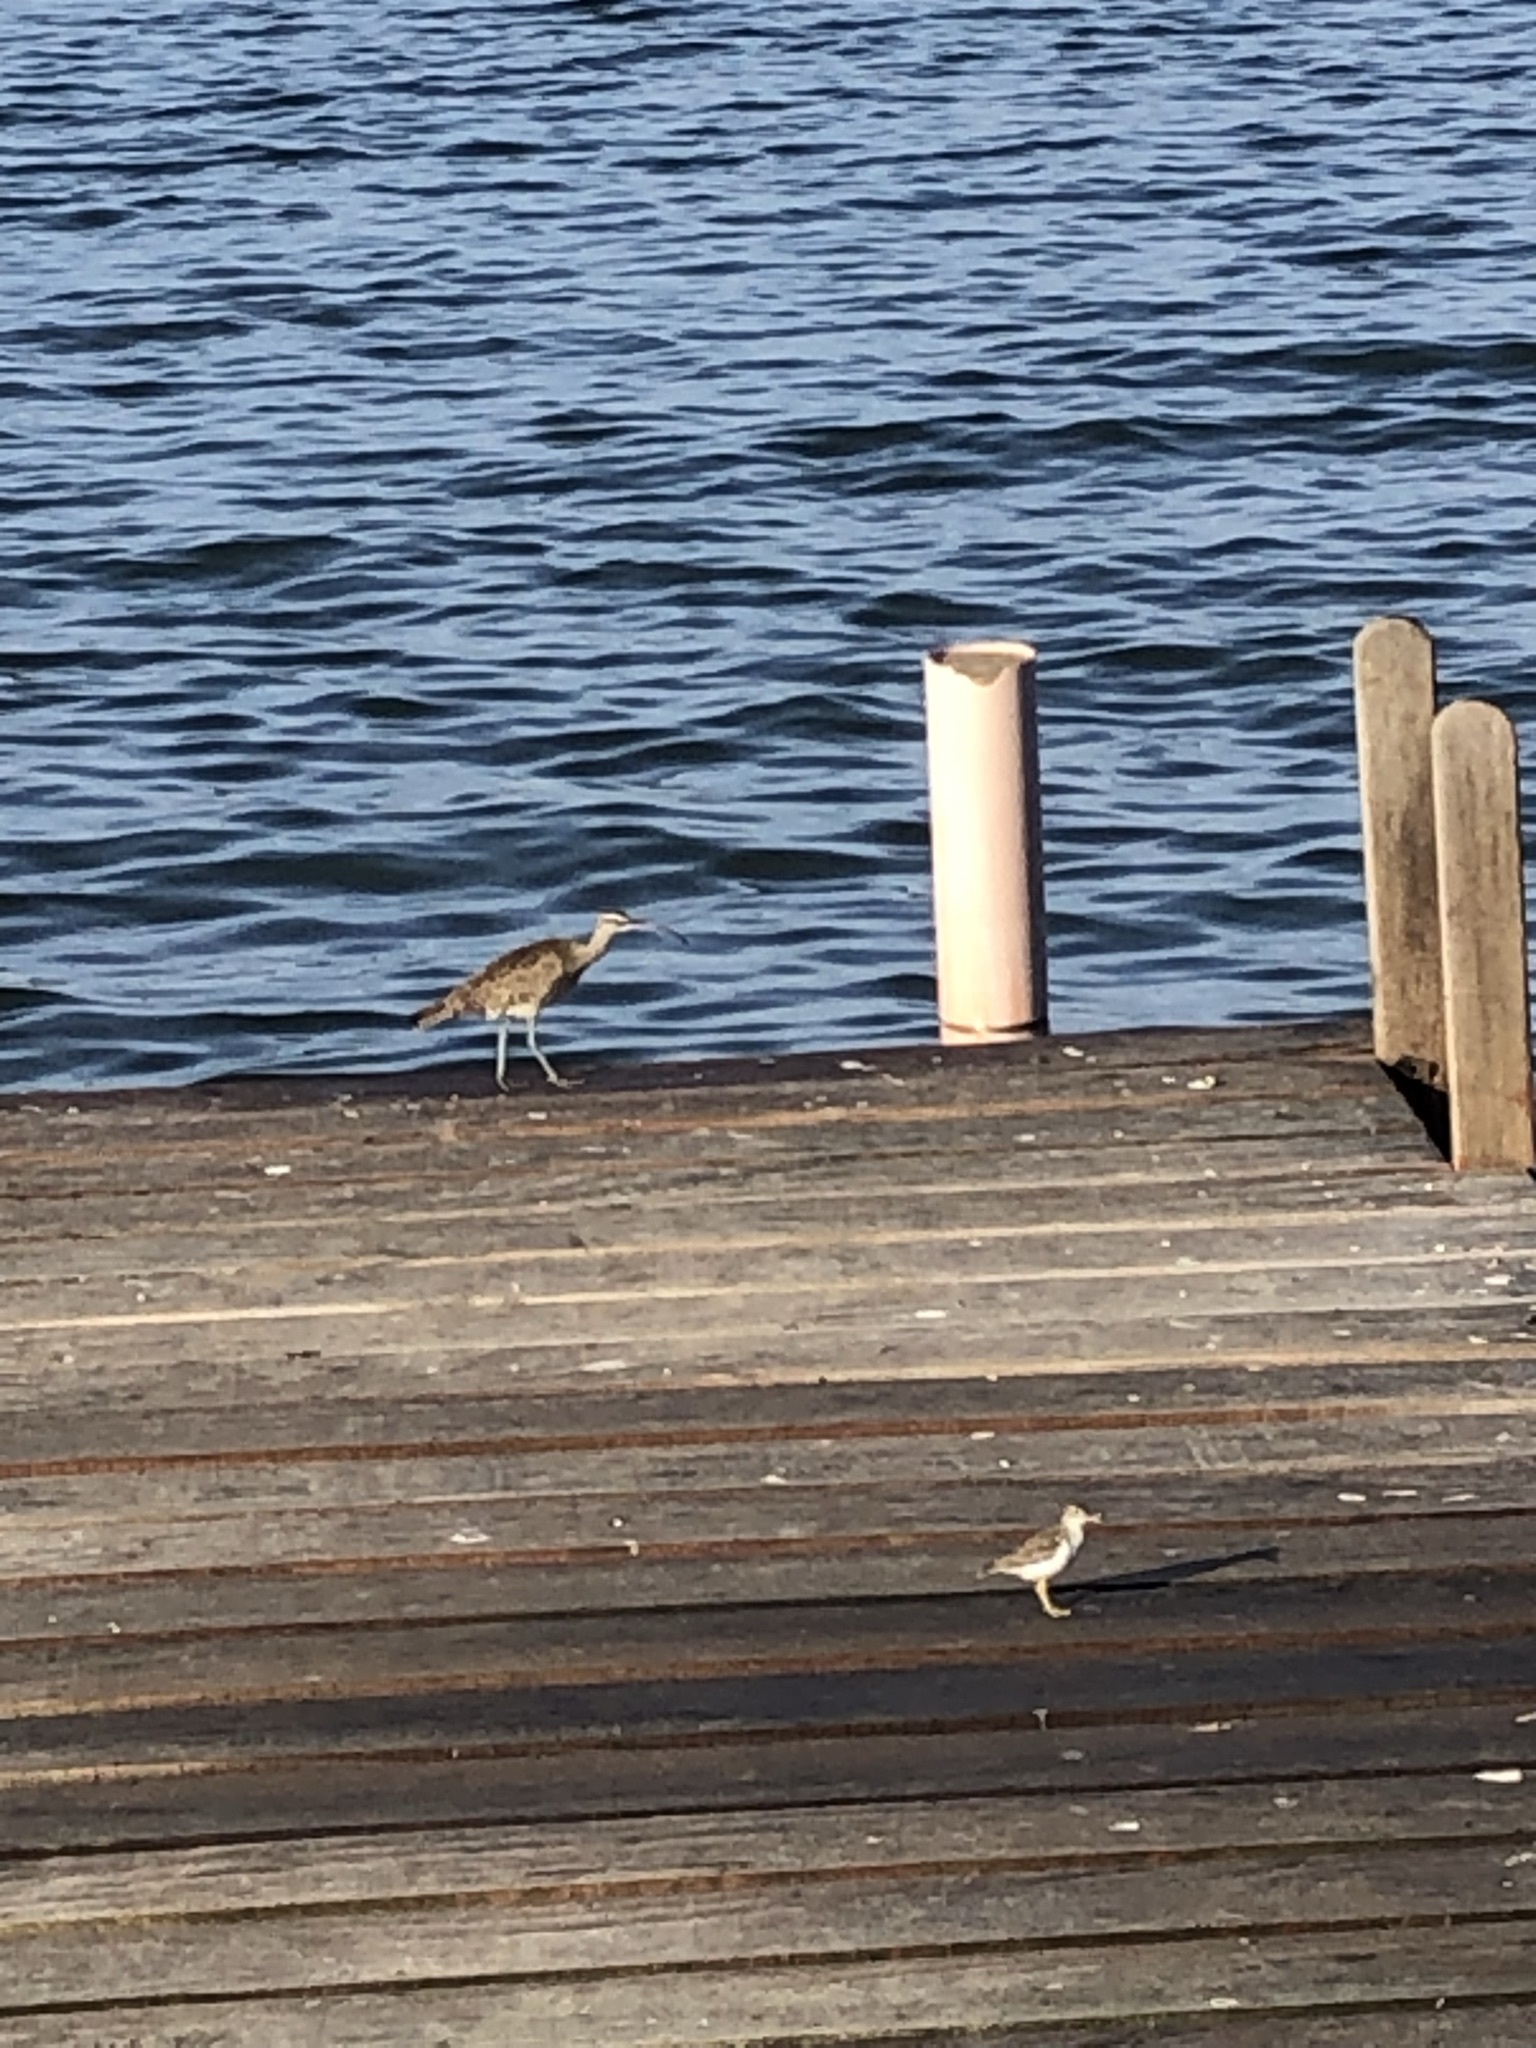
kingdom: Animalia
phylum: Chordata
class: Aves
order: Charadriiformes
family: Scolopacidae
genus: Actitis
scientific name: Actitis macularius
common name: Spotted sandpiper
